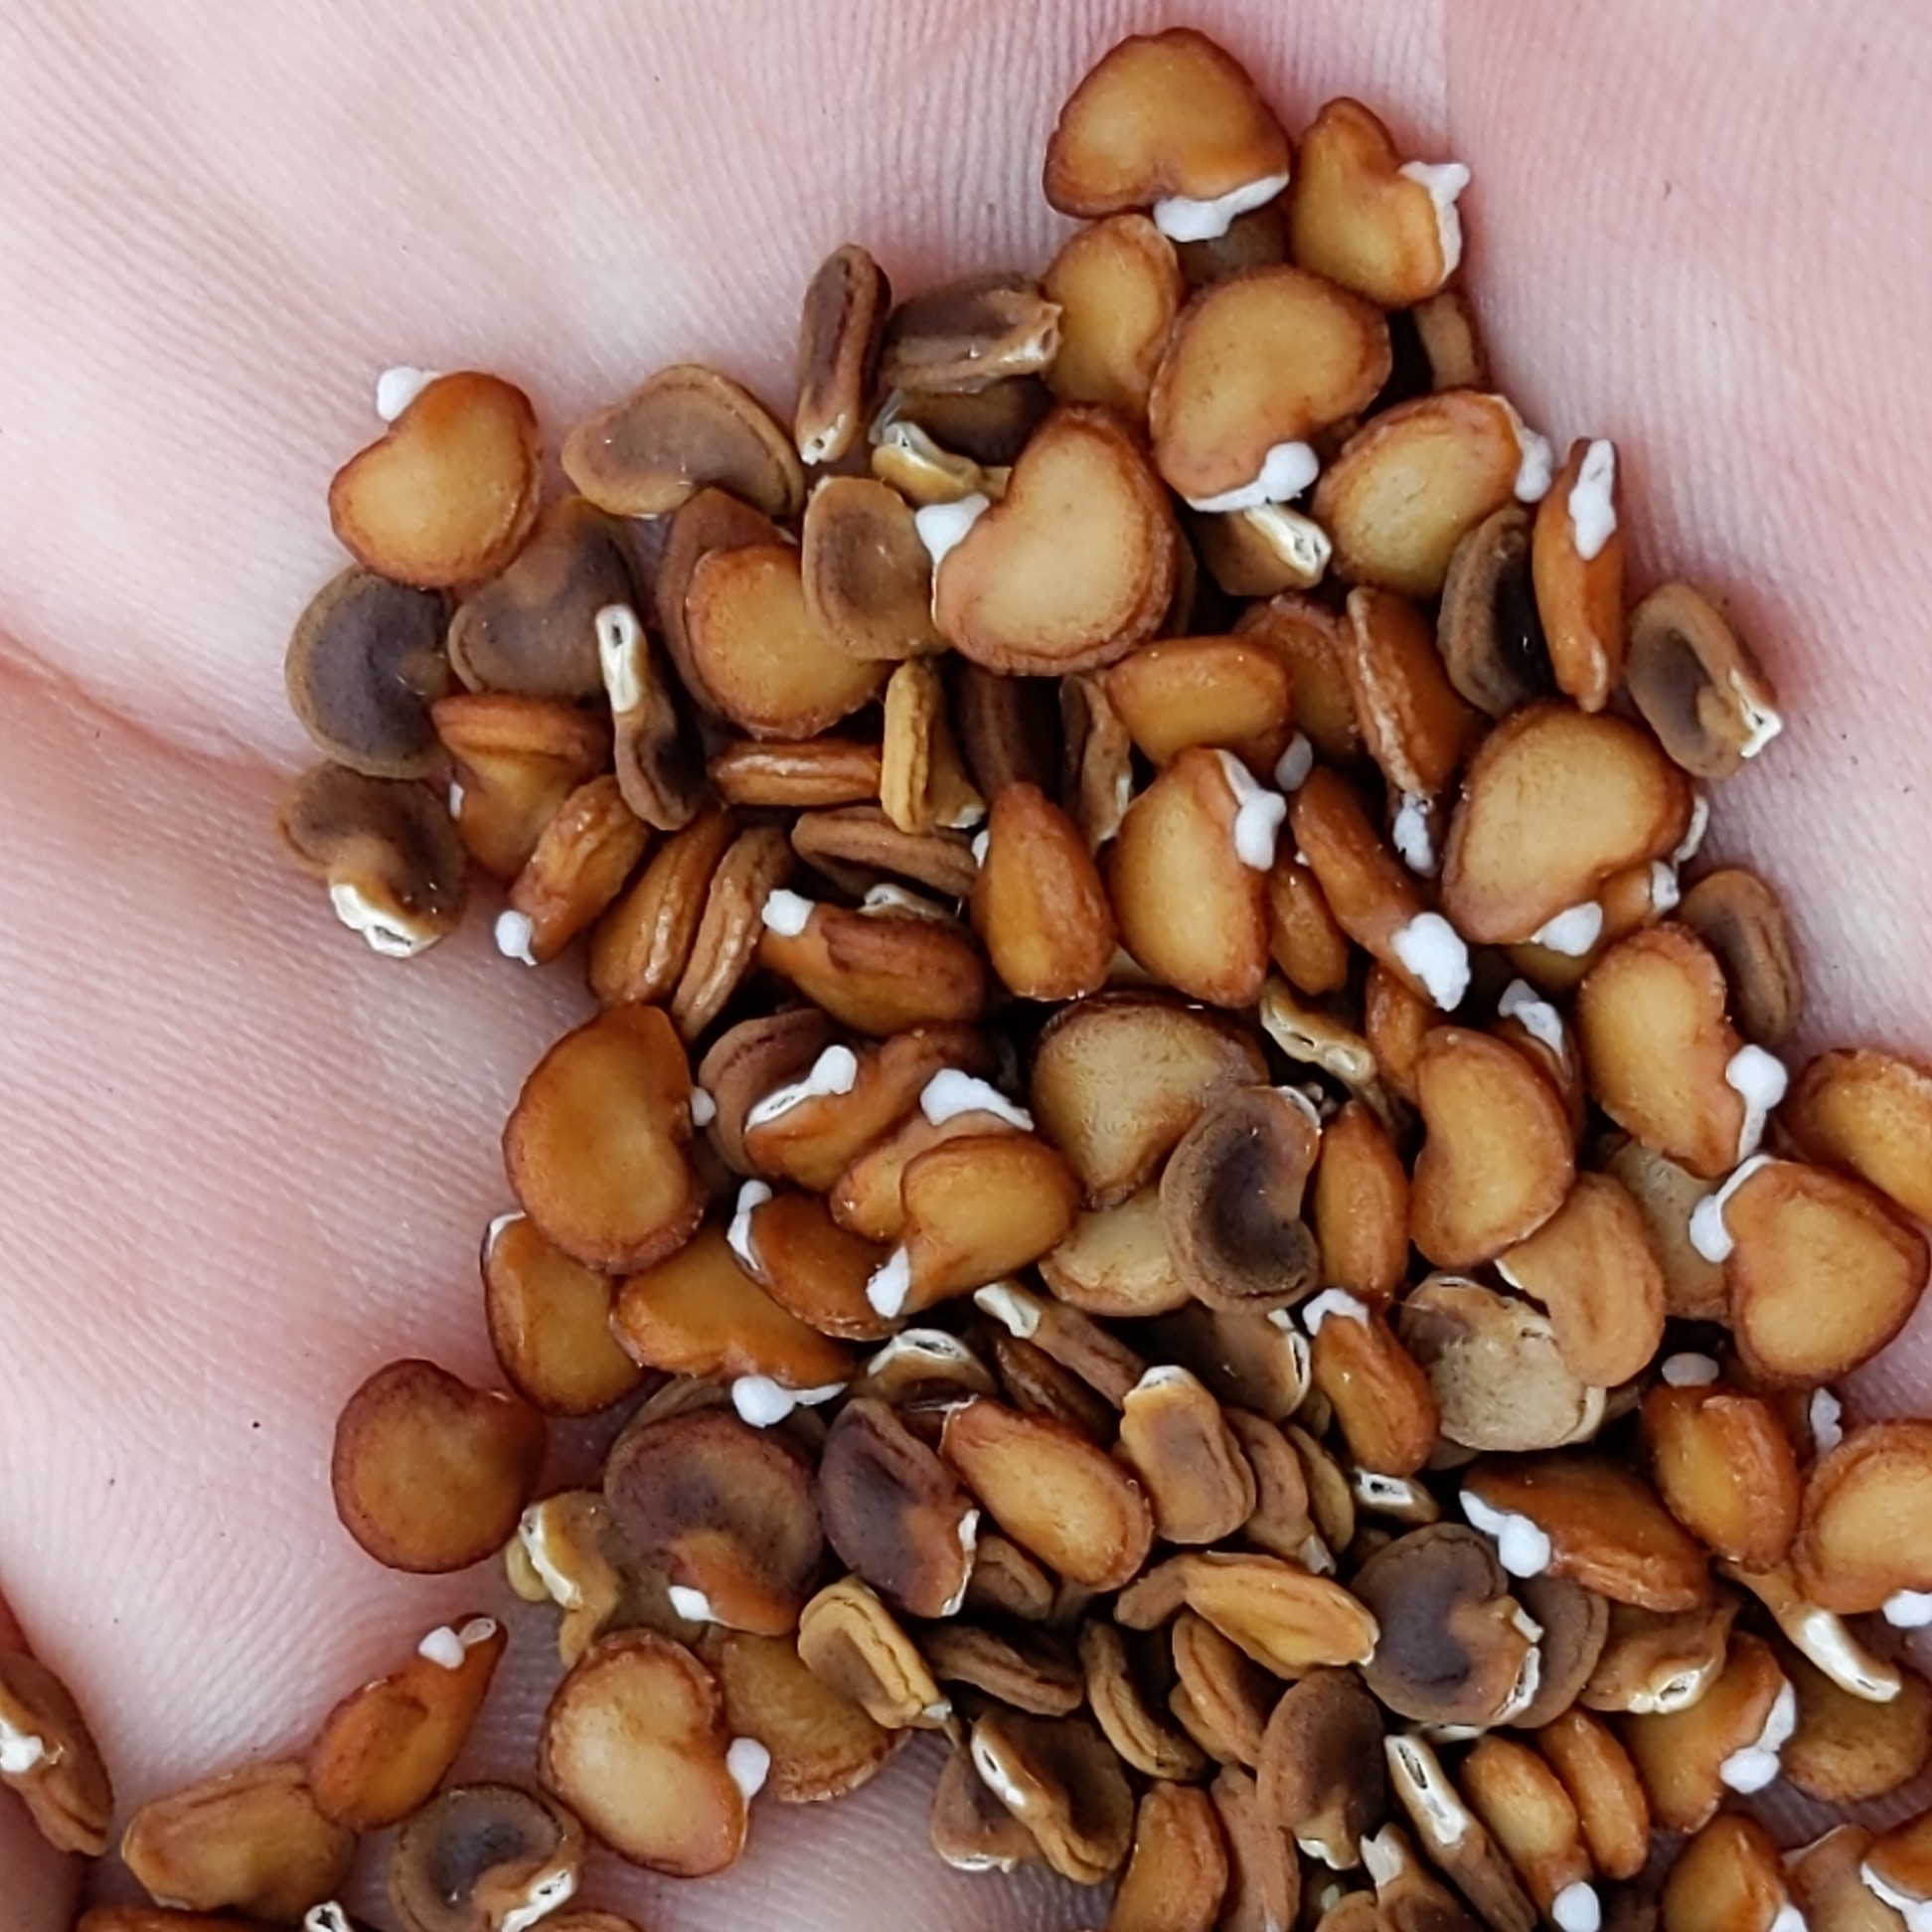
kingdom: Plantae
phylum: Tracheophyta
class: Magnoliopsida
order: Solanales
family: Solanaceae
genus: Datura
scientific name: Datura wrightii
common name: Sacred thorn-apple
